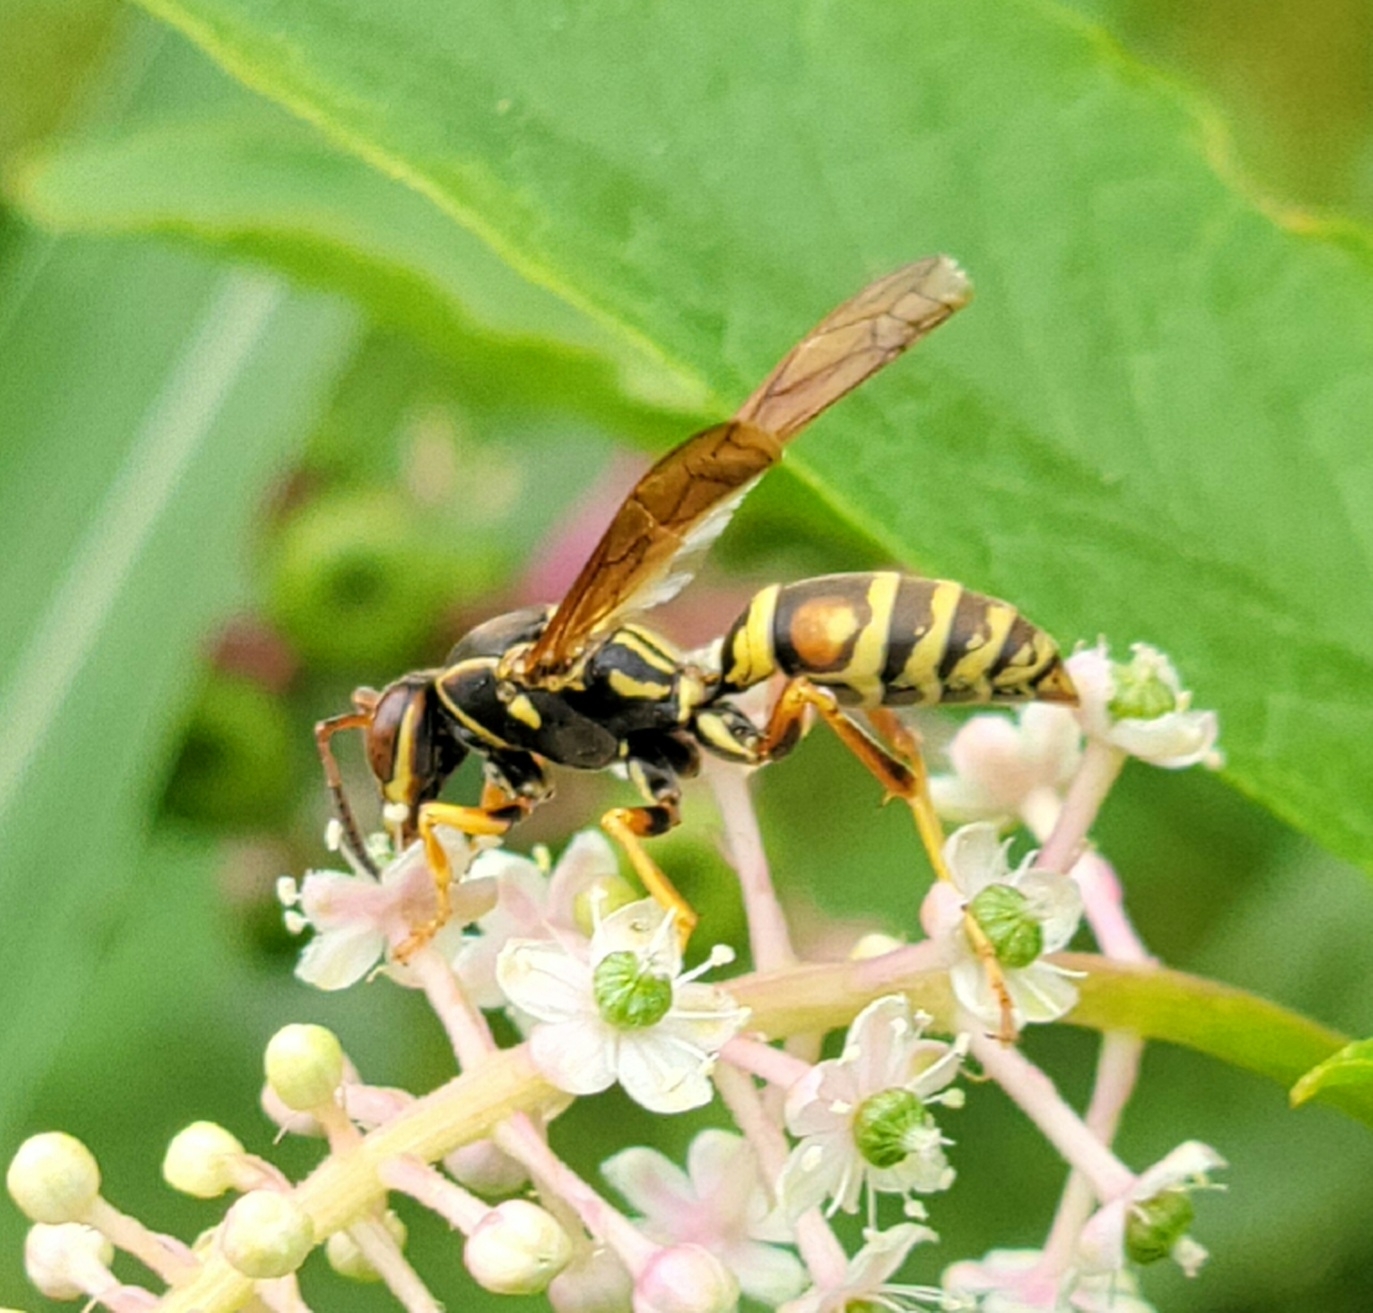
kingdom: Animalia
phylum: Arthropoda
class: Insecta
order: Hymenoptera
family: Eumenidae
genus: Polistes
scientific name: Polistes fuscatus
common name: Dark paper wasp
